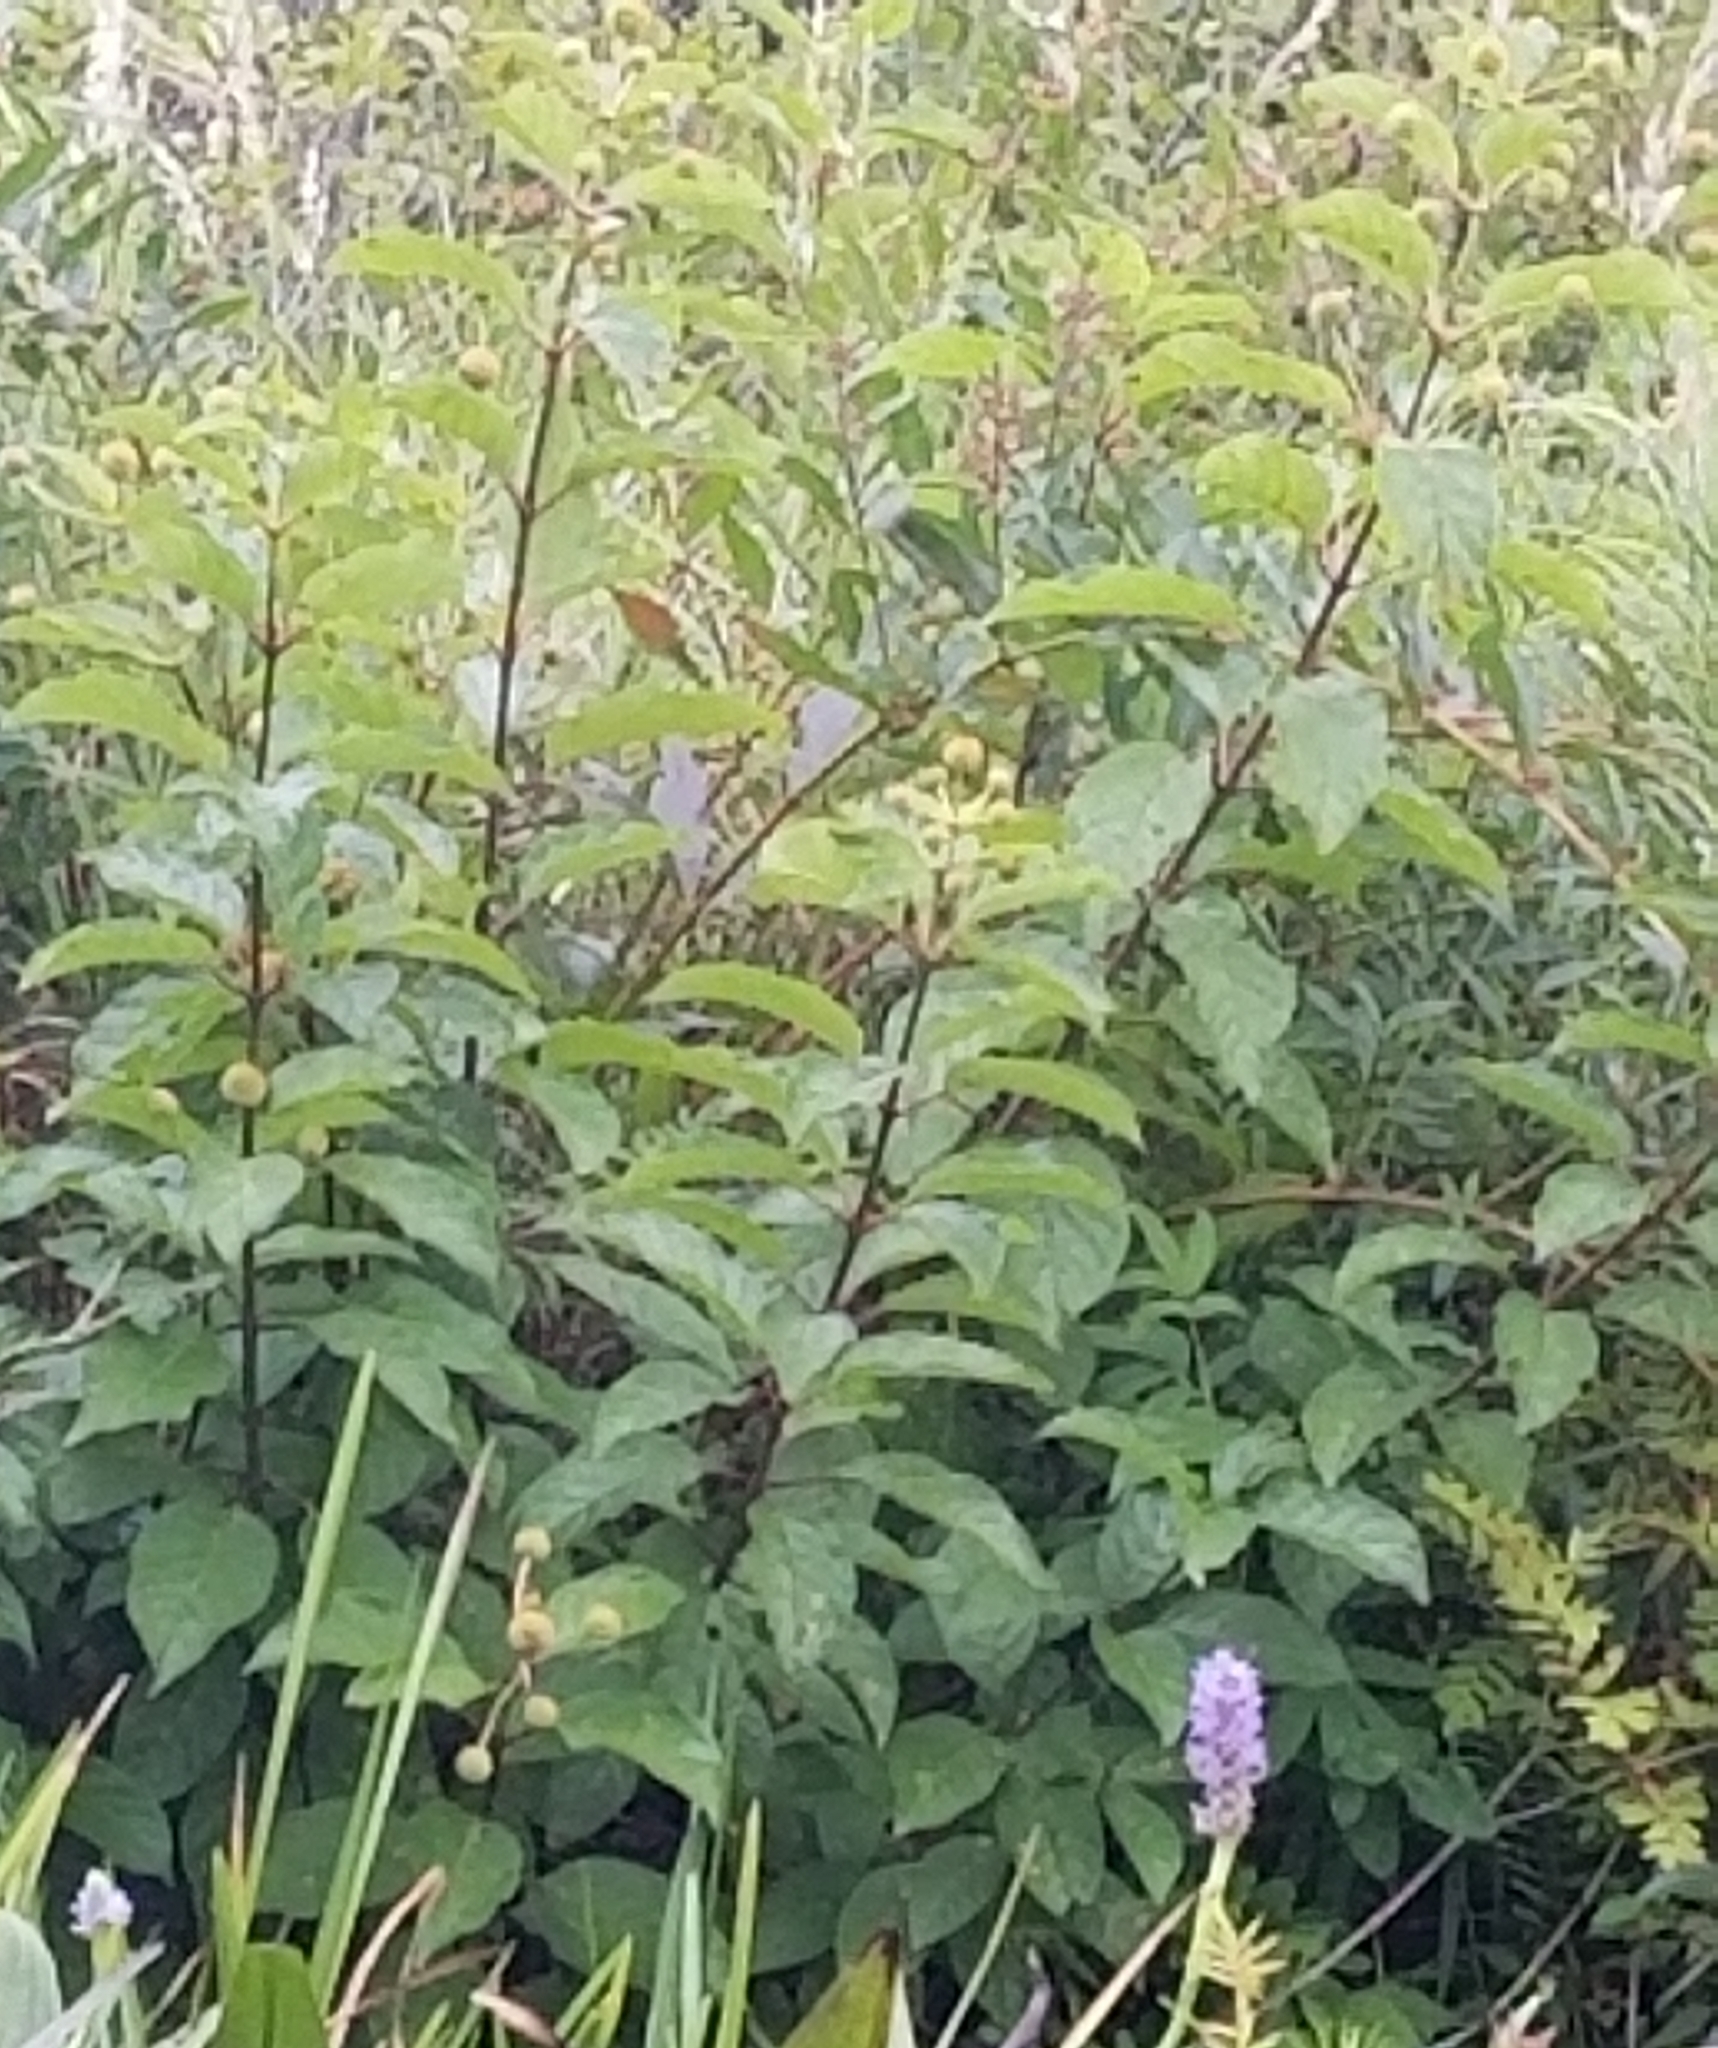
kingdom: Plantae
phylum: Tracheophyta
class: Magnoliopsida
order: Gentianales
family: Rubiaceae
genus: Cephalanthus
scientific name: Cephalanthus occidentalis
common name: Button-willow
